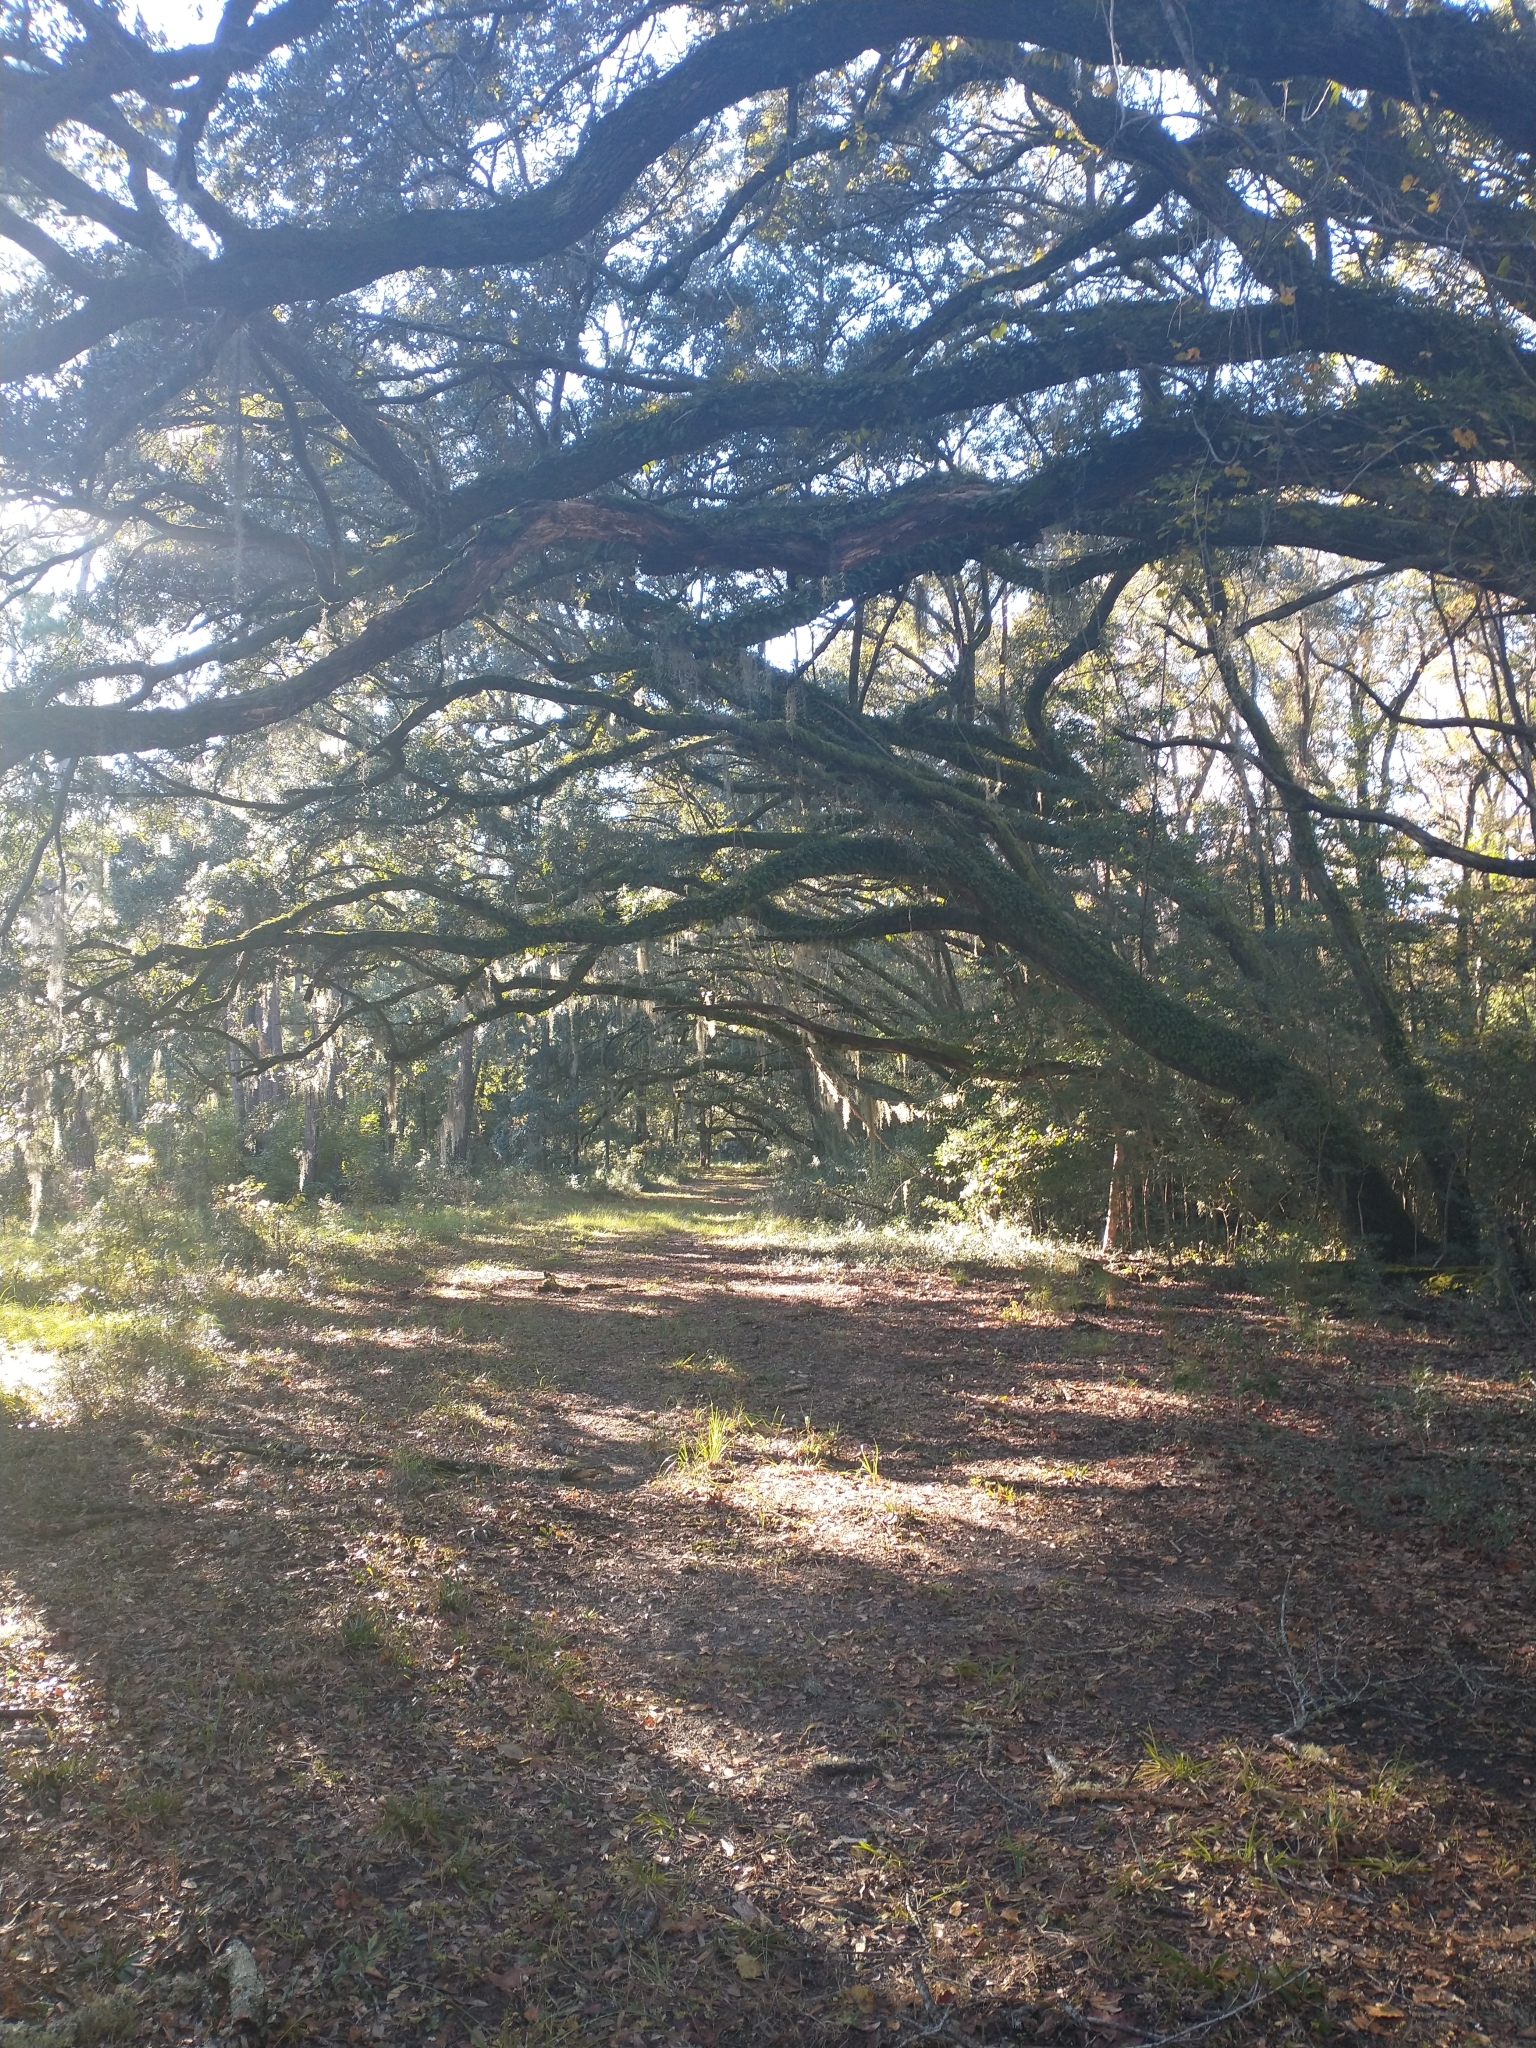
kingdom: Plantae
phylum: Tracheophyta
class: Liliopsida
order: Poales
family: Bromeliaceae
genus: Tillandsia
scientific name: Tillandsia usneoides
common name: Spanish moss
